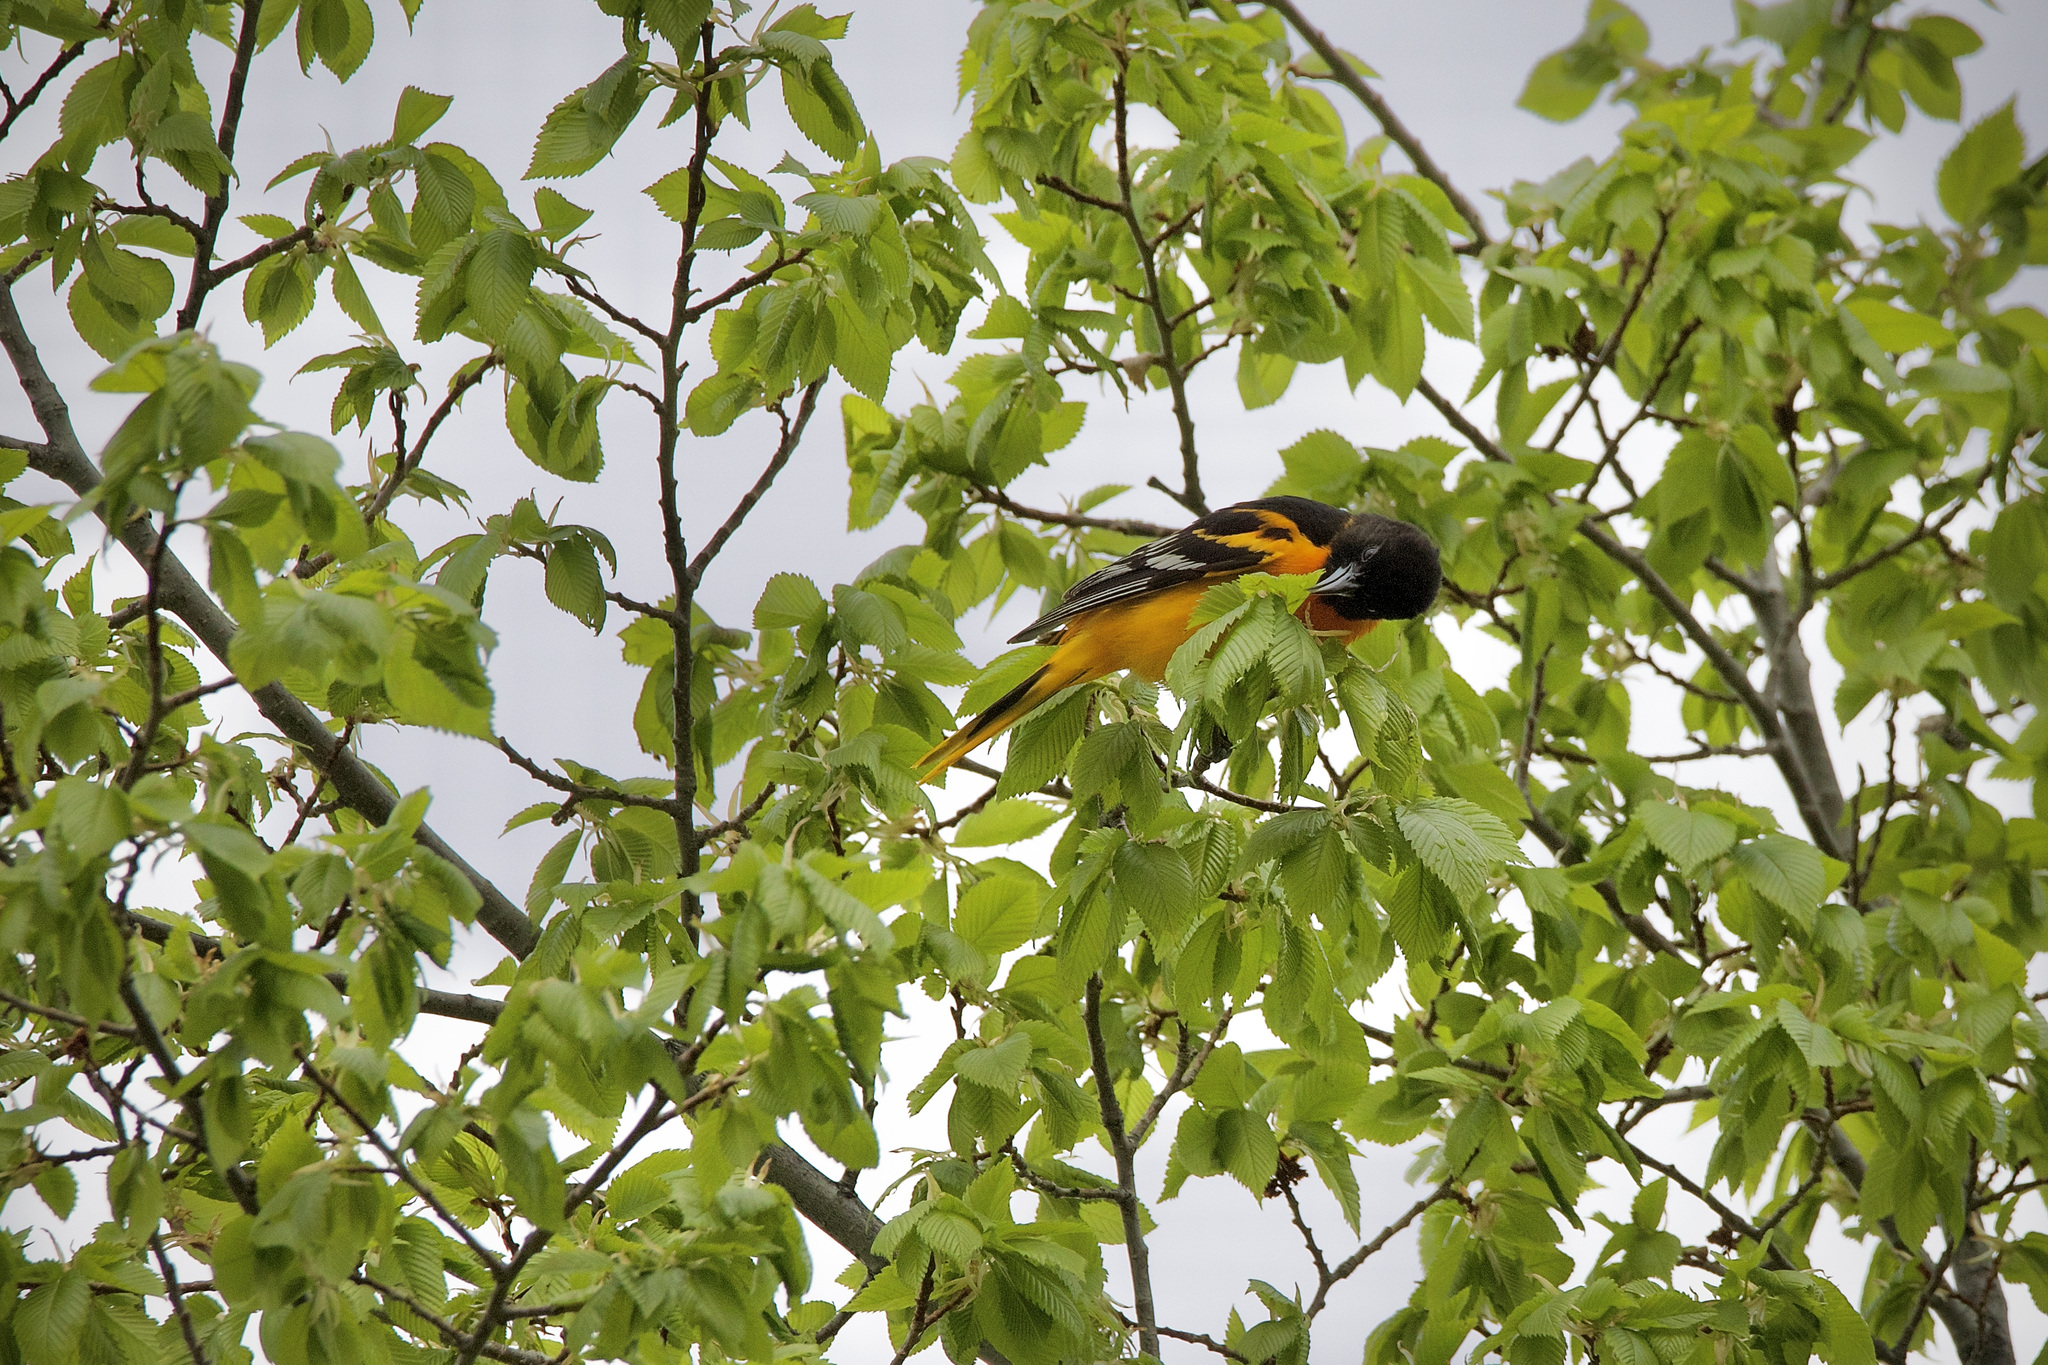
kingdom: Animalia
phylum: Chordata
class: Aves
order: Passeriformes
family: Icteridae
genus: Icterus
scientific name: Icterus galbula
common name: Baltimore oriole
